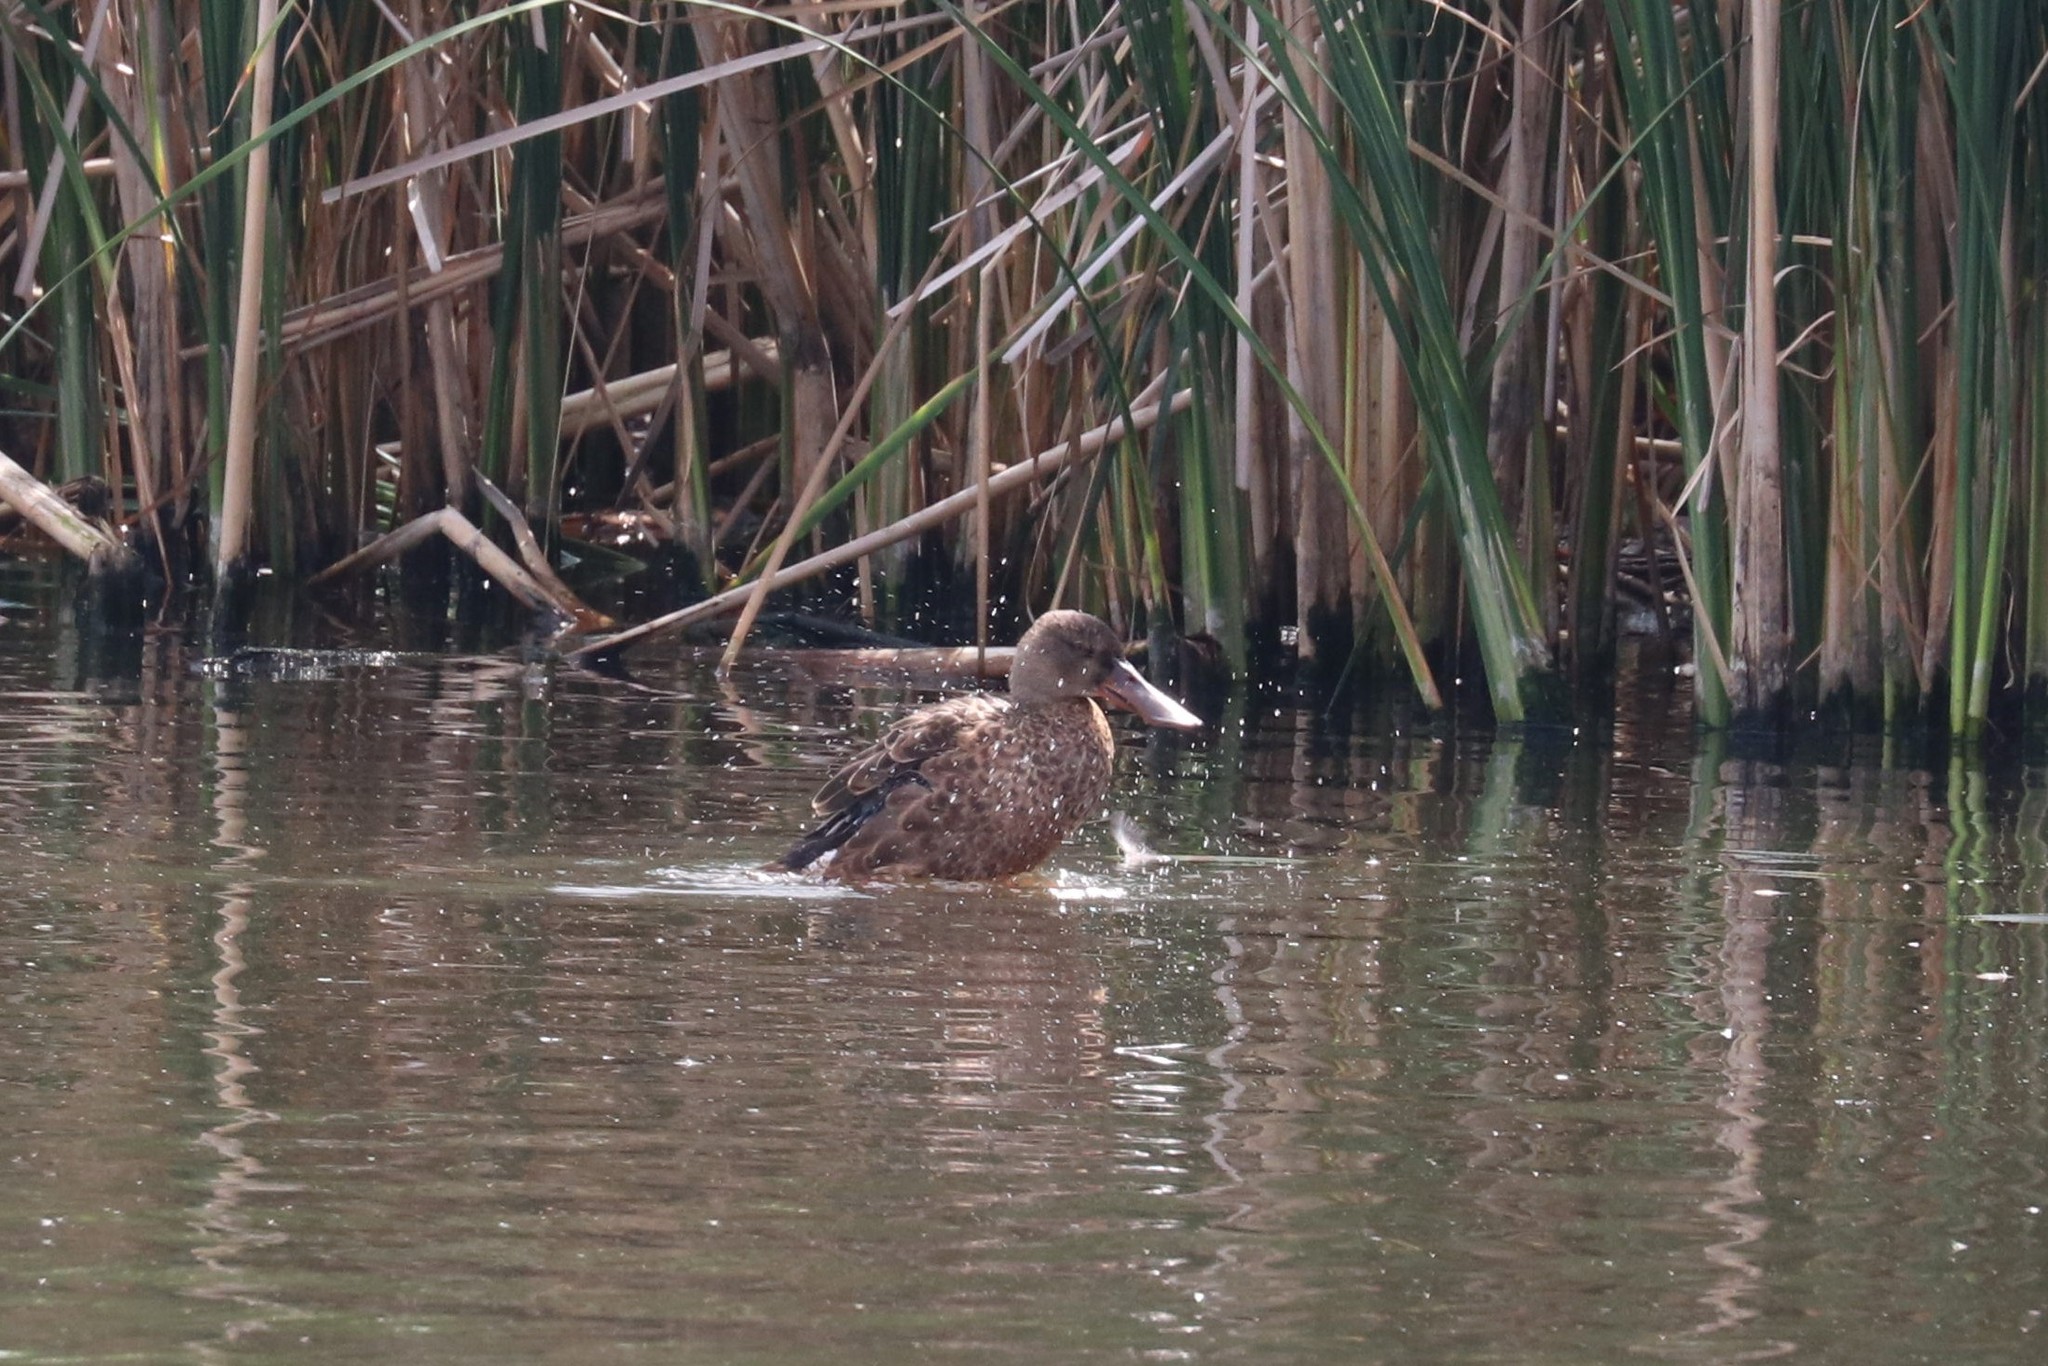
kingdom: Animalia
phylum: Chordata
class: Aves
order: Anseriformes
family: Anatidae
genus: Spatula
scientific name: Spatula clypeata
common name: Northern shoveler
